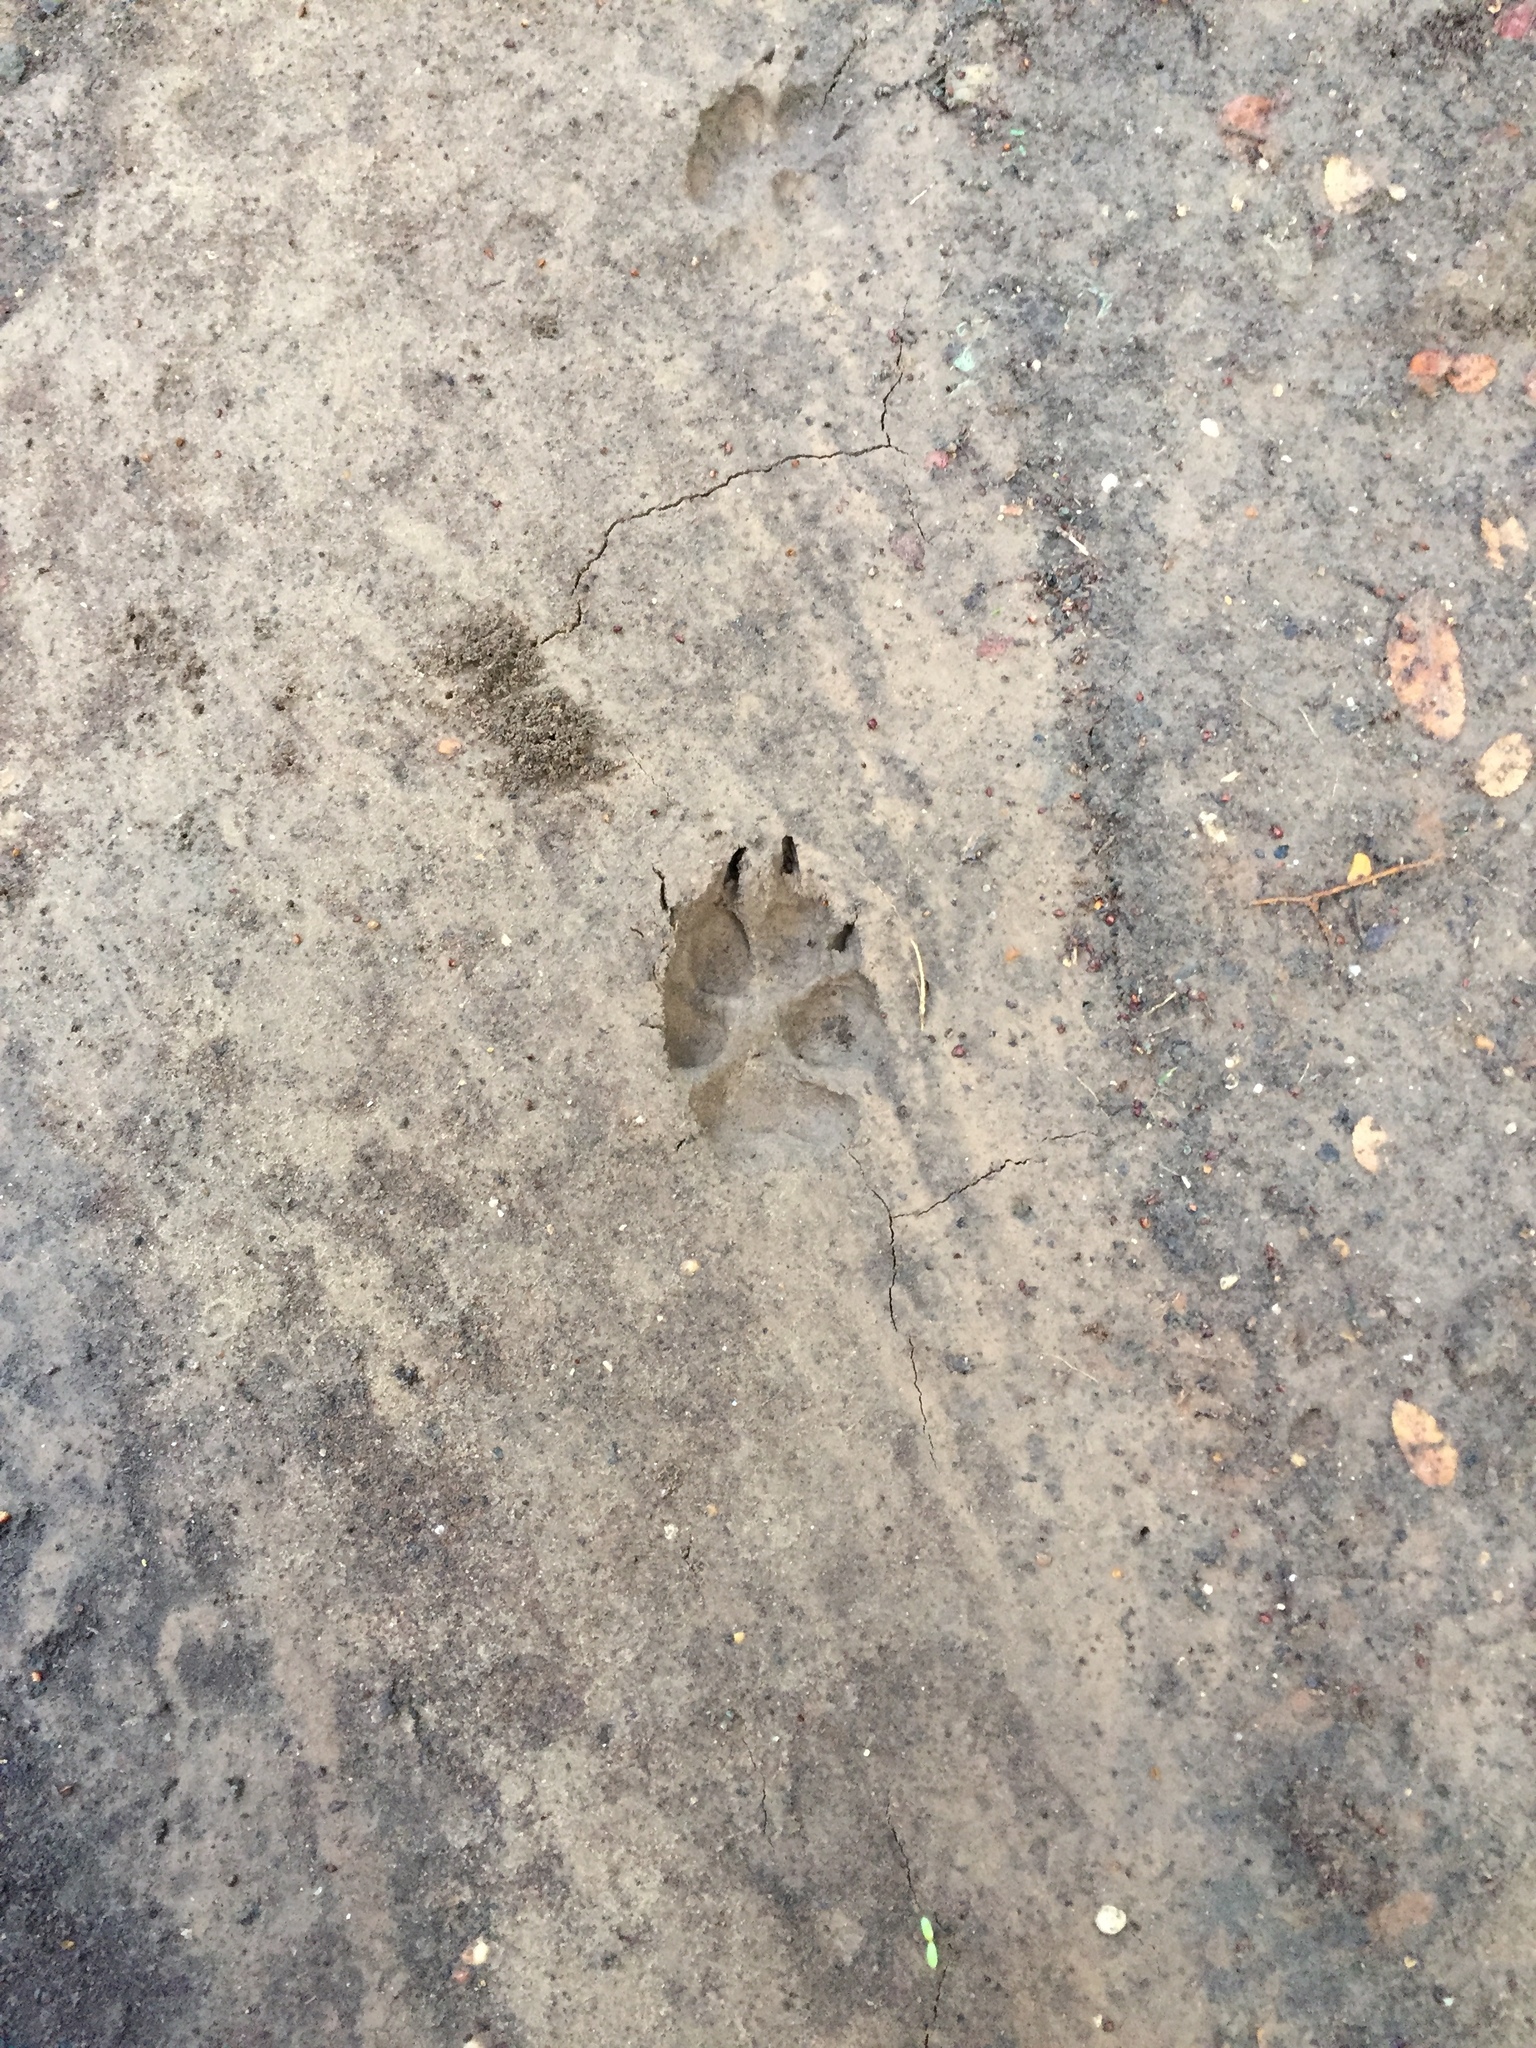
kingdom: Animalia
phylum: Chordata
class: Mammalia
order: Carnivora
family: Canidae
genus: Canis
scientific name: Canis latrans
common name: Coyote
